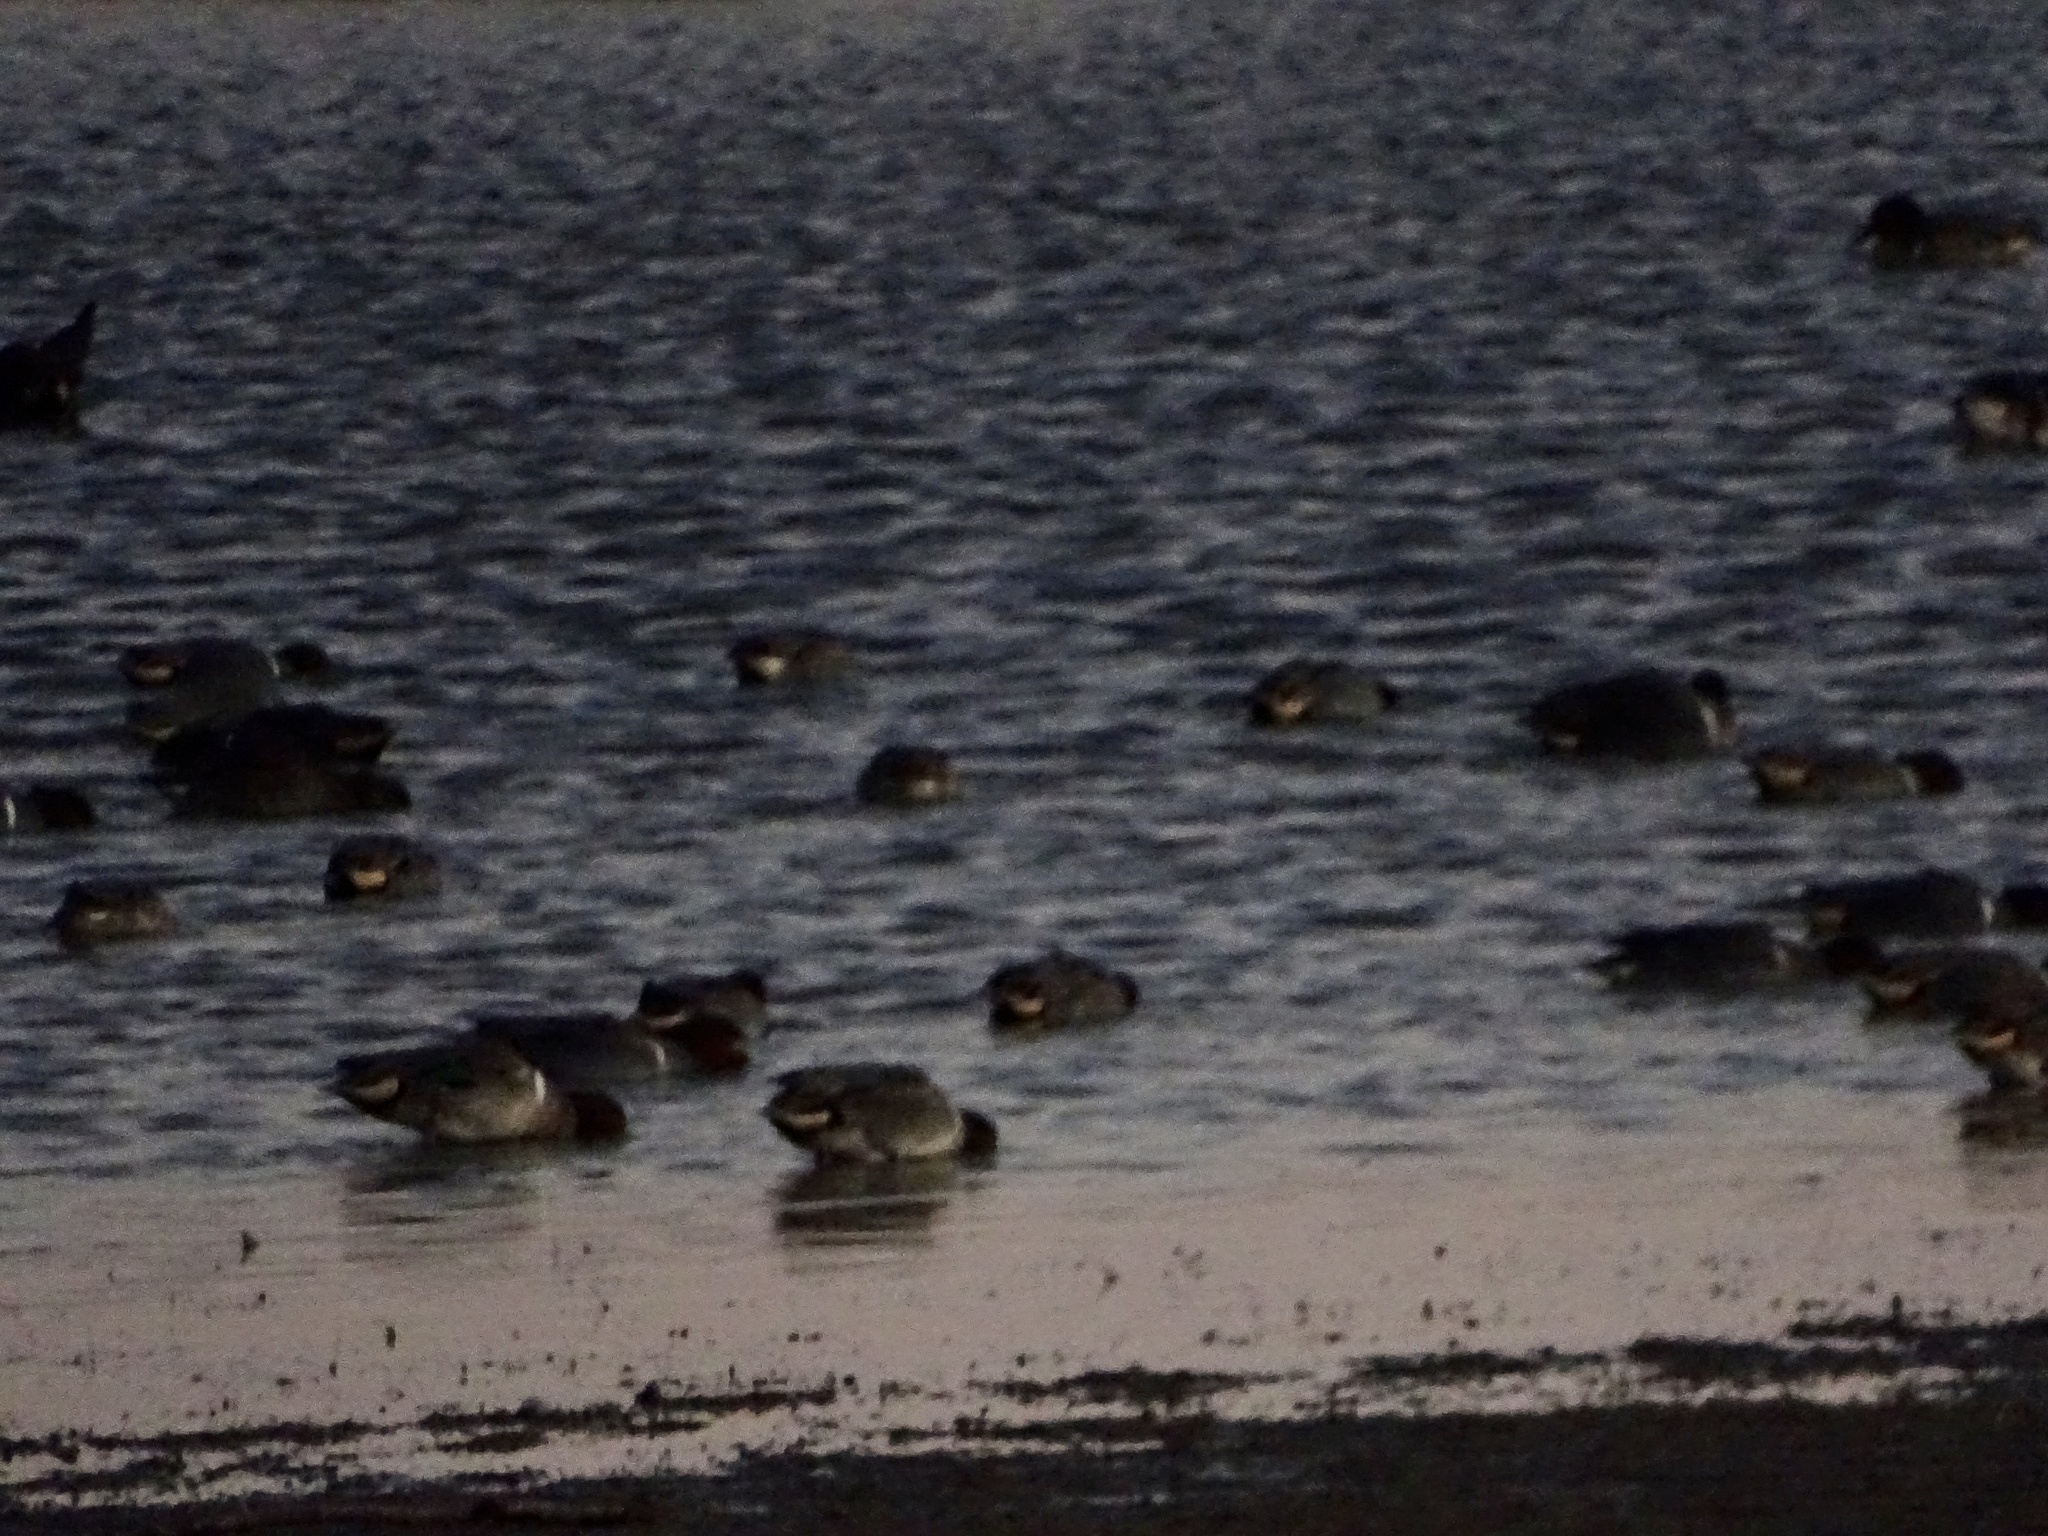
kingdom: Animalia
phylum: Chordata
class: Aves
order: Anseriformes
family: Anatidae
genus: Anas
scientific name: Anas crecca
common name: Eurasian teal
